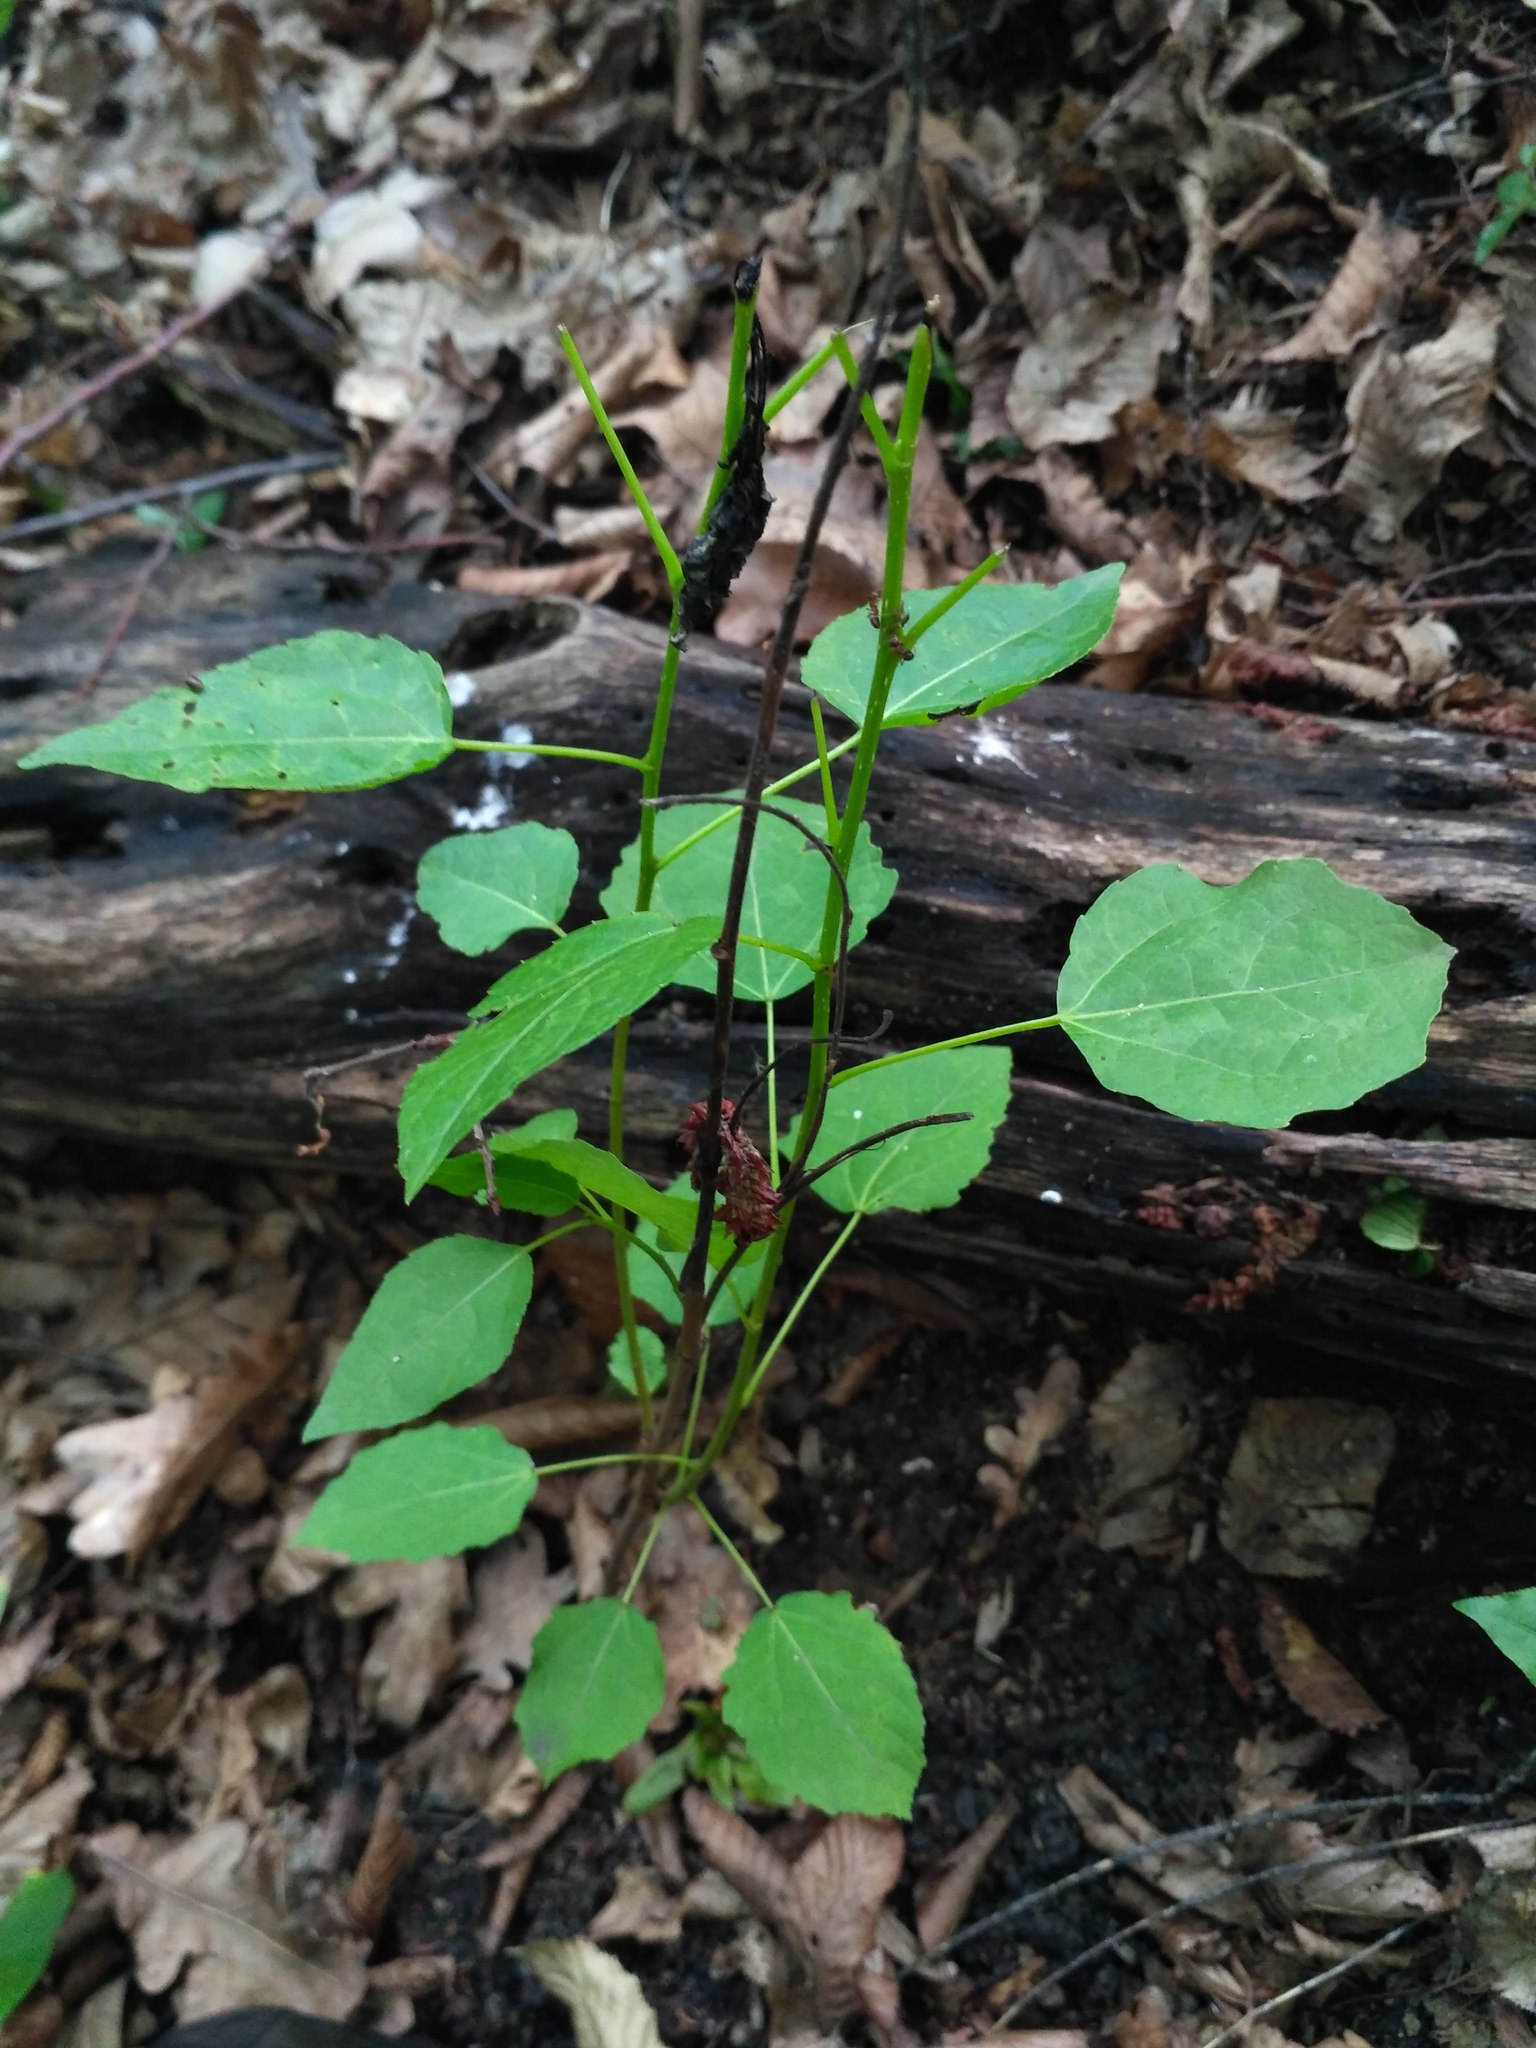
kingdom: Plantae
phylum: Tracheophyta
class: Magnoliopsida
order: Malpighiales
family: Salicaceae
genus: Populus
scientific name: Populus tremula
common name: European aspen
